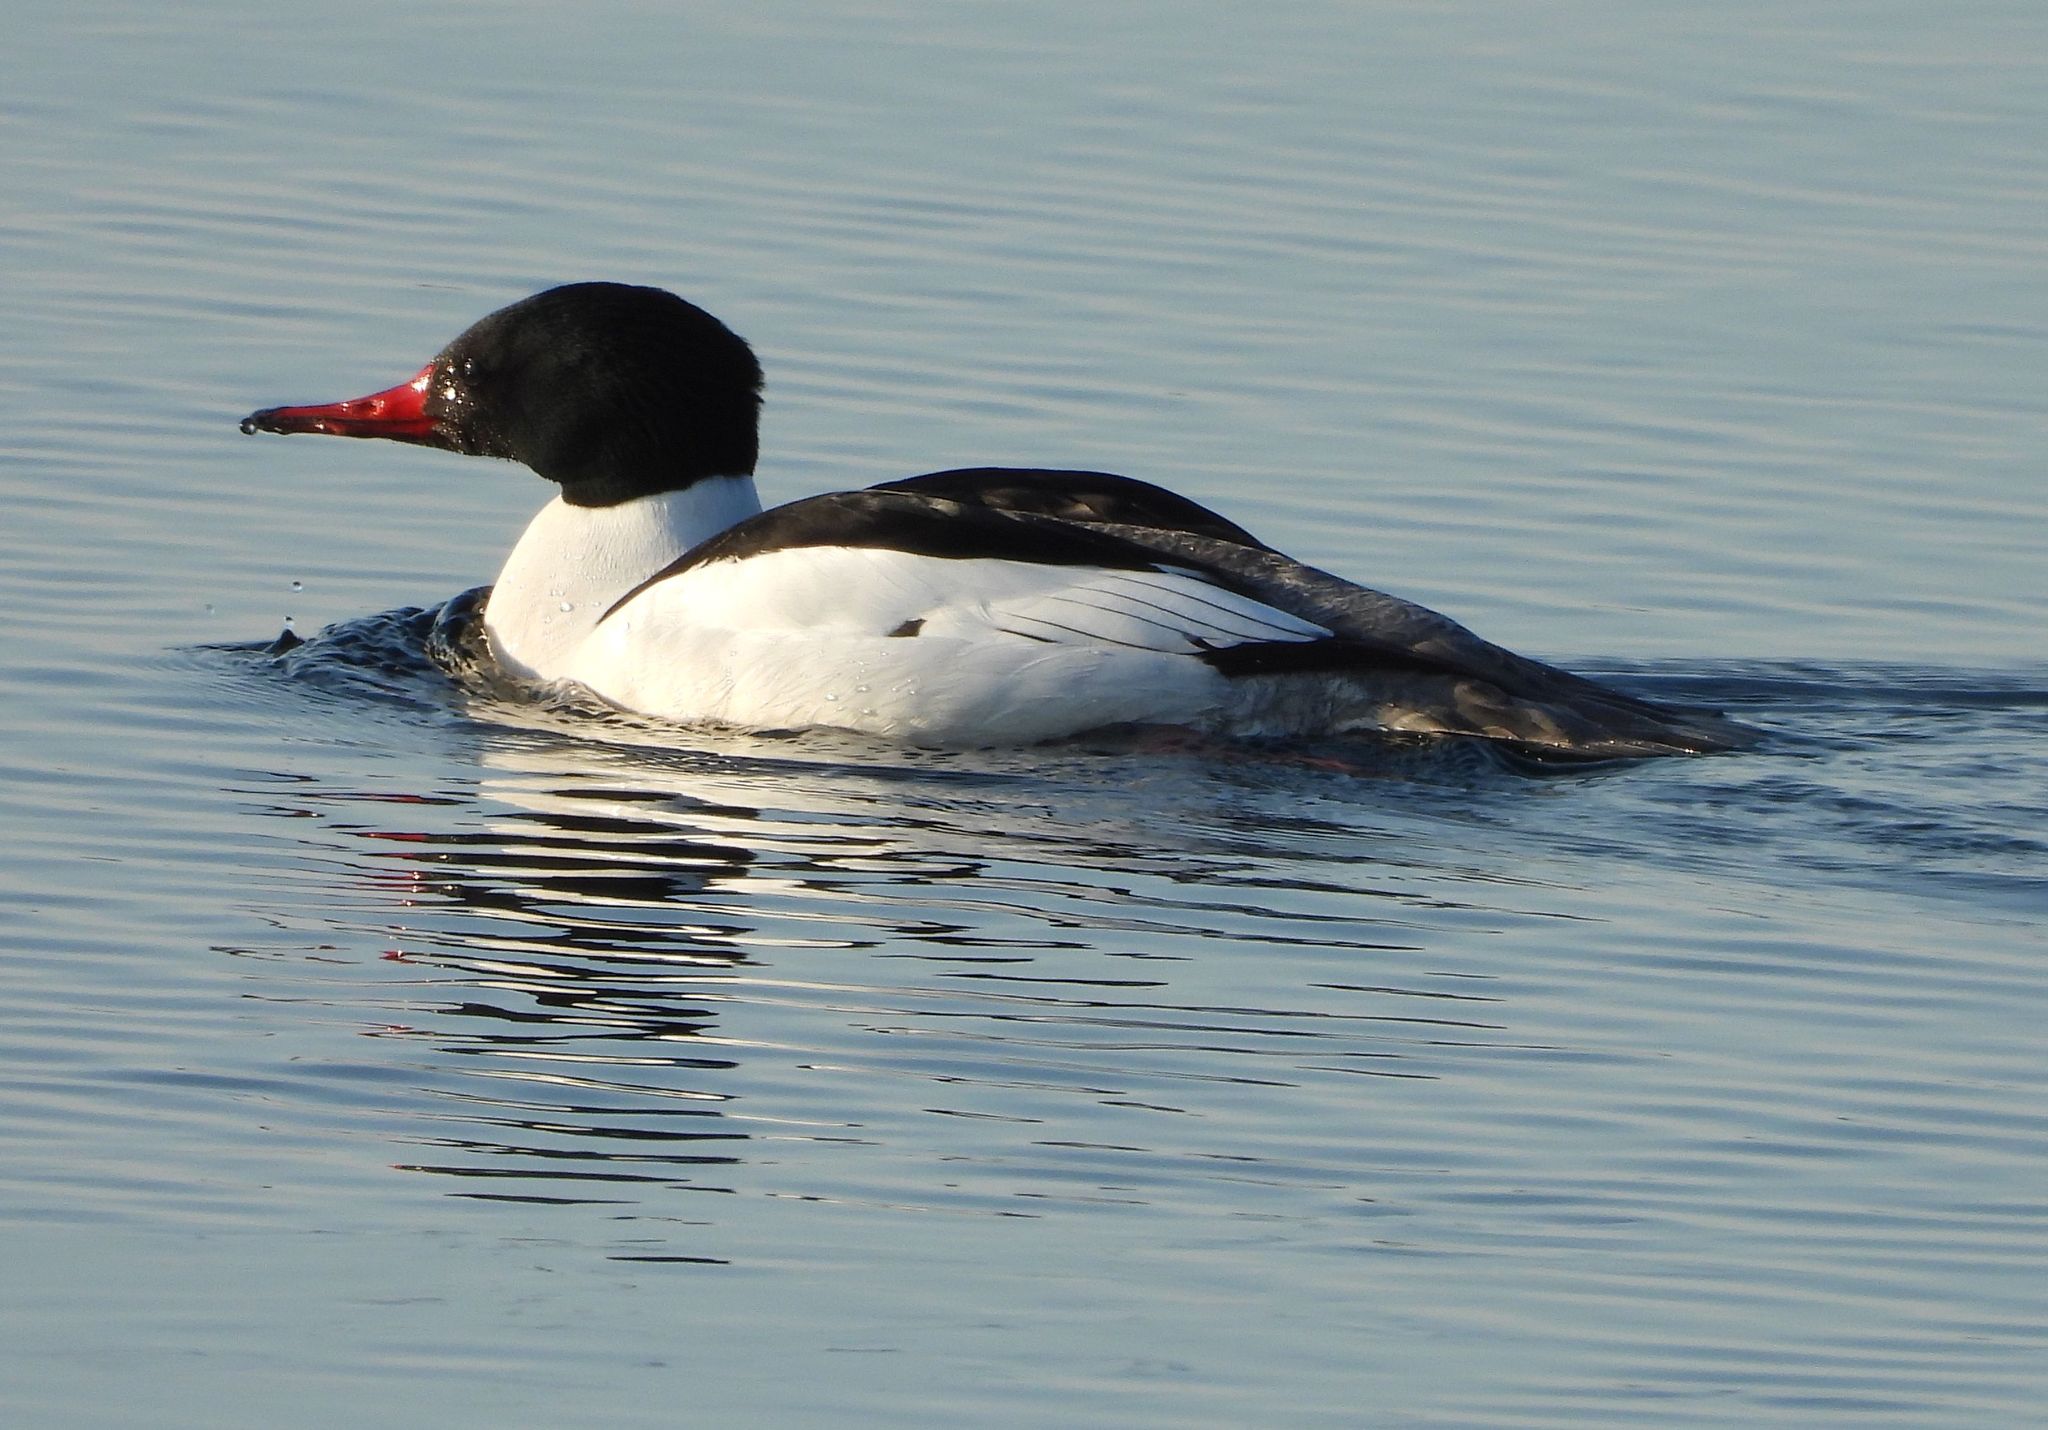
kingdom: Animalia
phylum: Chordata
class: Aves
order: Anseriformes
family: Anatidae
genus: Mergus
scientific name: Mergus merganser
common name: Common merganser
